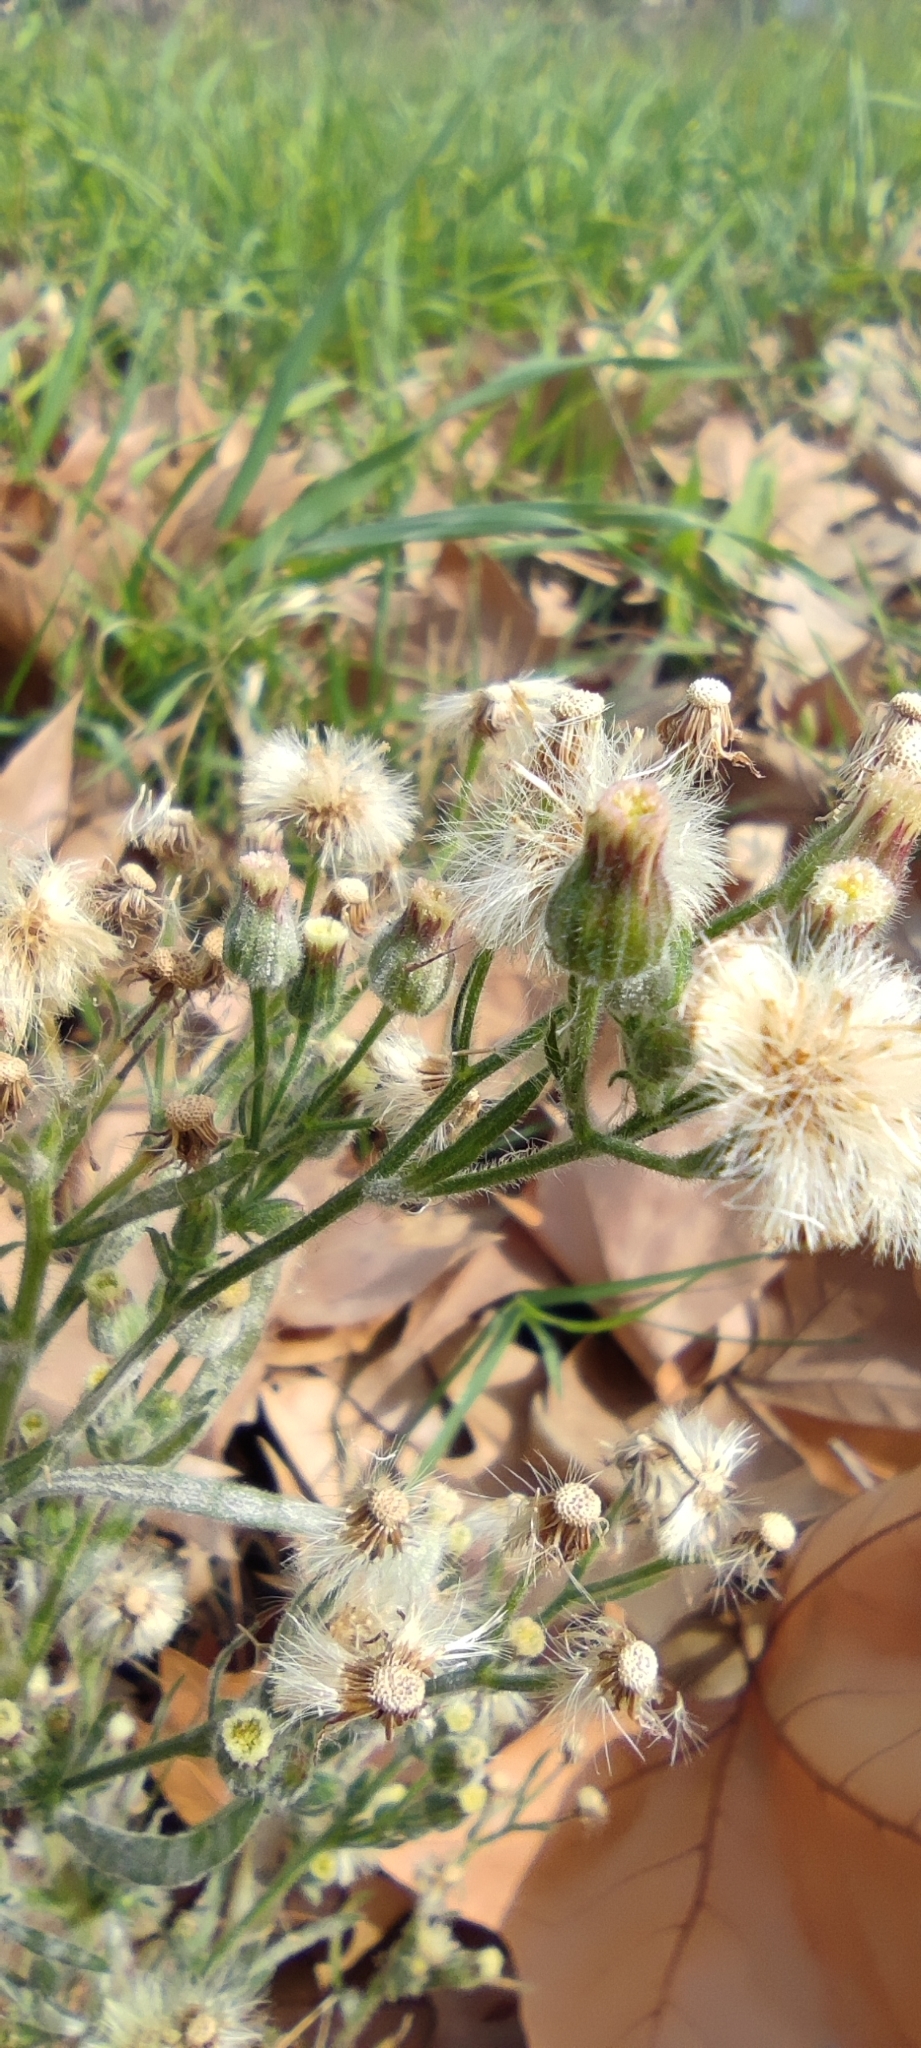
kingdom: Plantae
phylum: Tracheophyta
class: Magnoliopsida
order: Asterales
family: Asteraceae
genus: Erigeron
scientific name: Erigeron bonariensis
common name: Argentine fleabane
